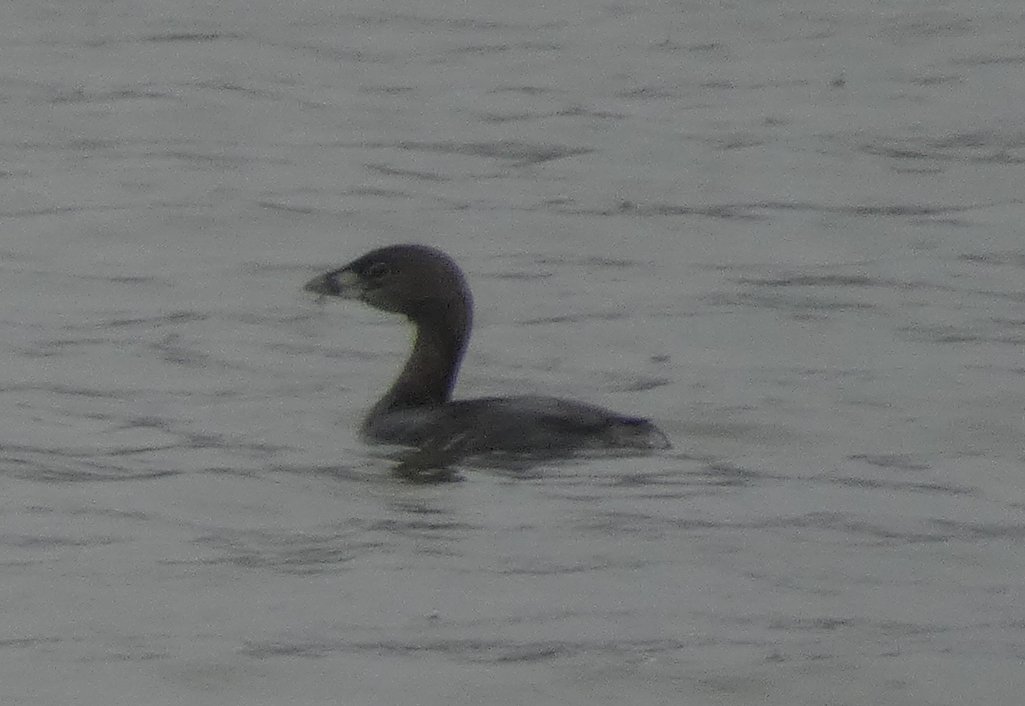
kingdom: Animalia
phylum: Chordata
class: Aves
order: Podicipediformes
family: Podicipedidae
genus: Podilymbus
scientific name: Podilymbus podiceps
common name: Pied-billed grebe
